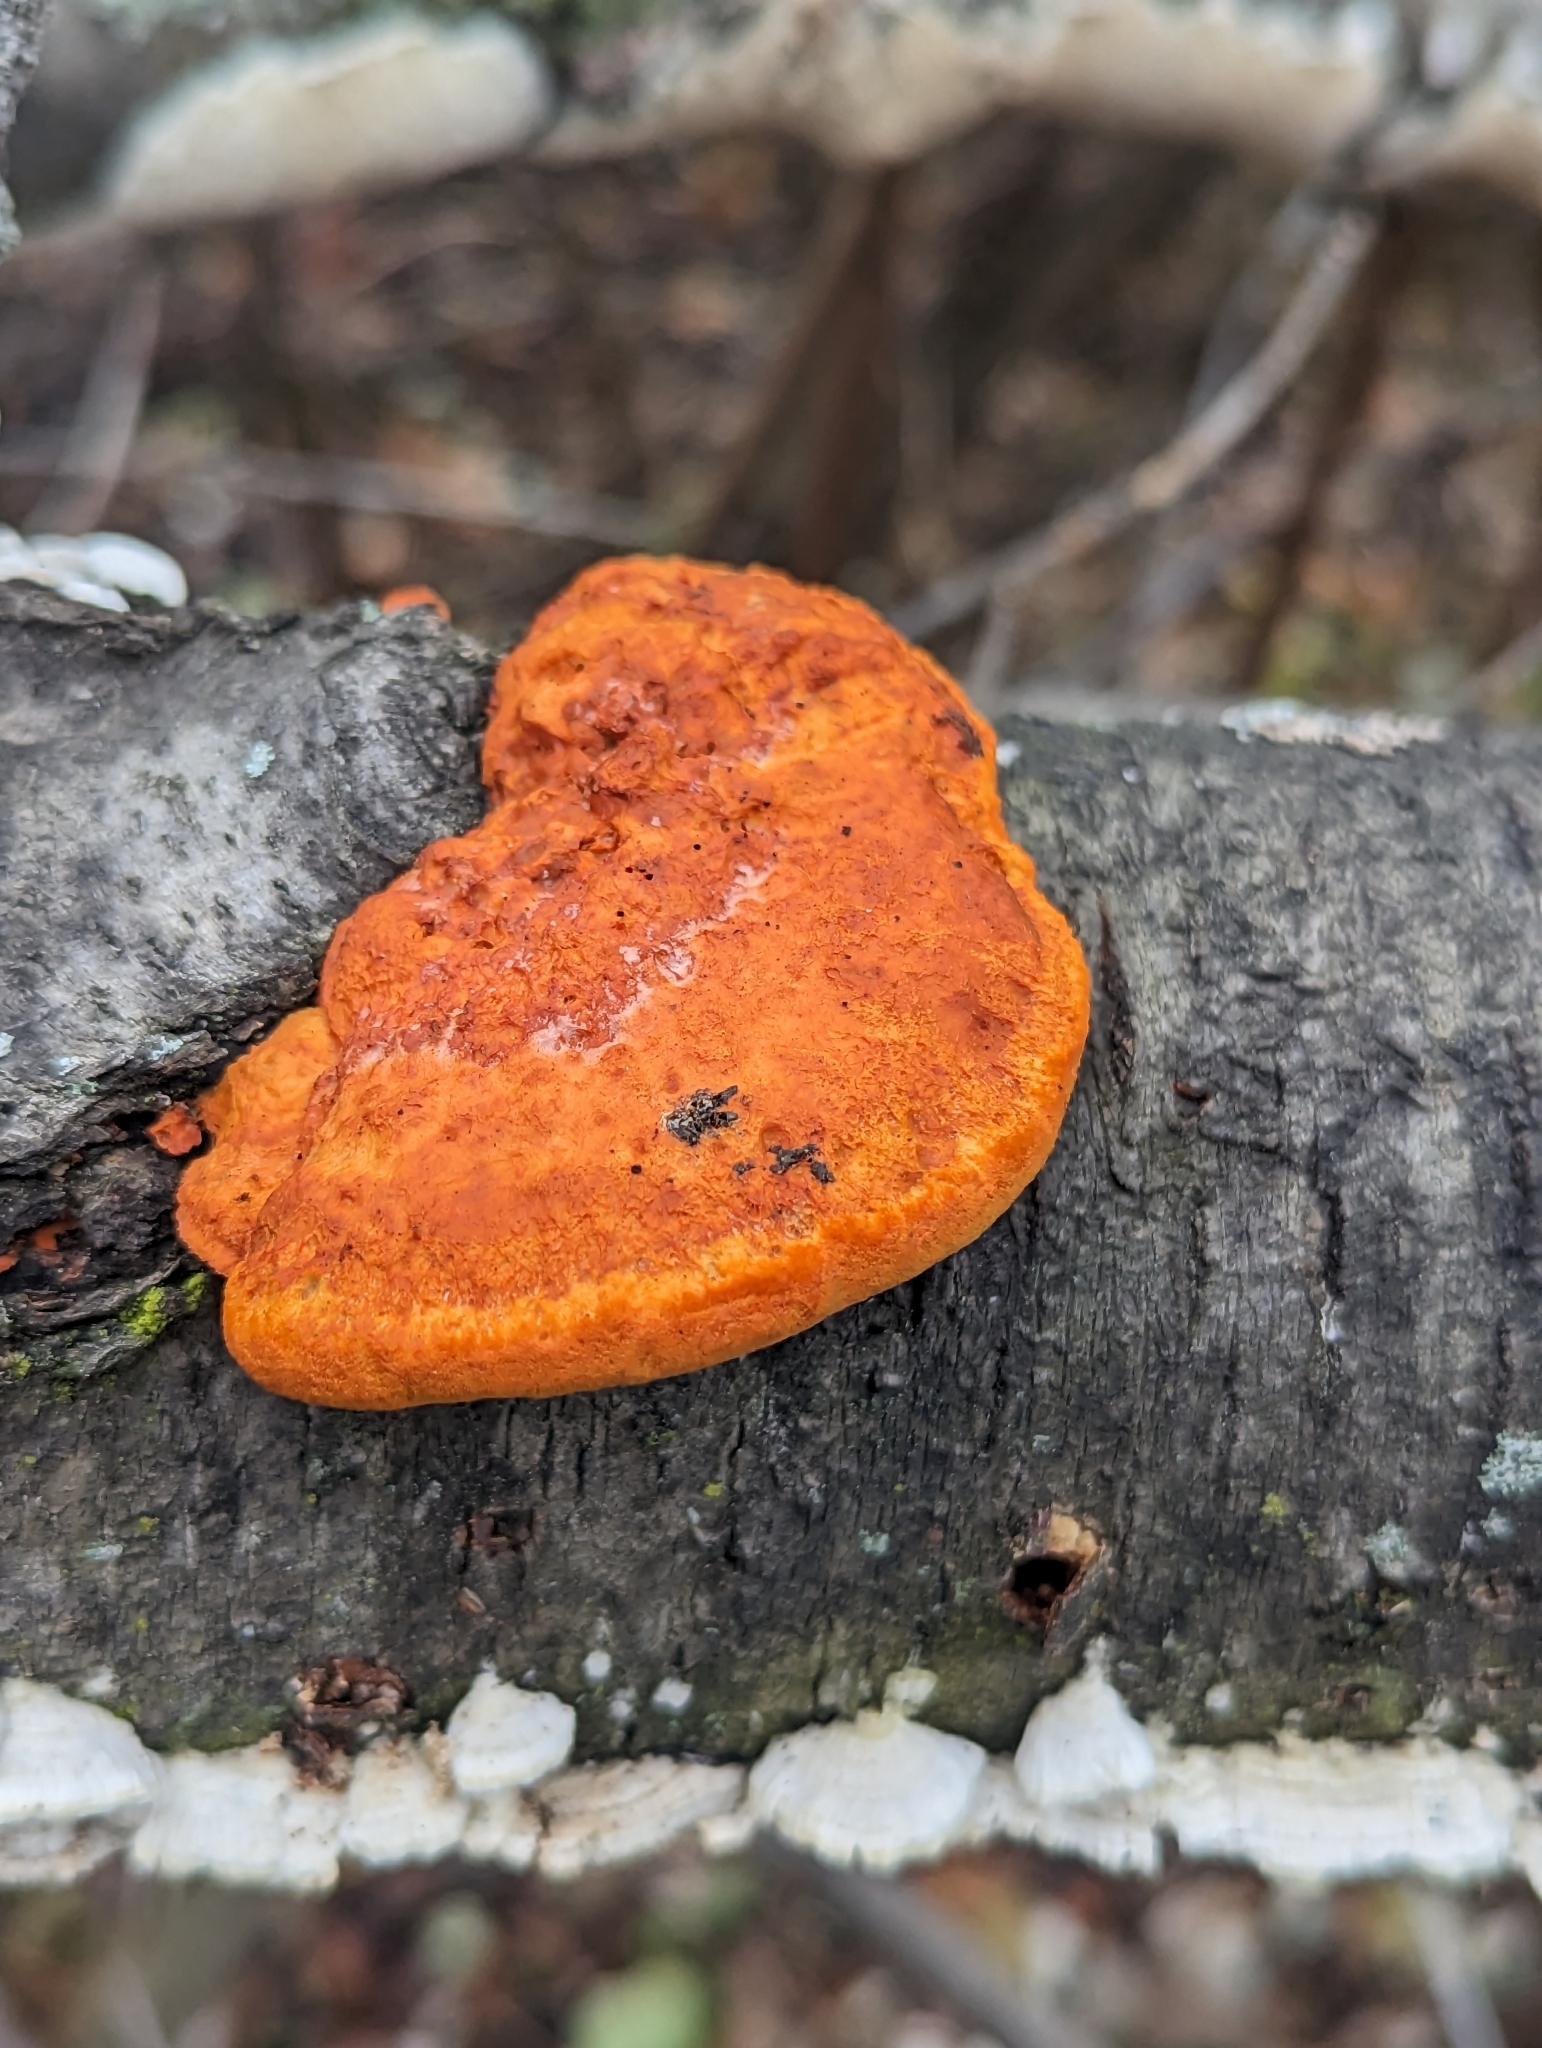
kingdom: Fungi
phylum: Basidiomycota
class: Agaricomycetes
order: Polyporales
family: Polyporaceae
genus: Trametes
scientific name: Trametes cinnabarina
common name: Northern cinnabar polypore
